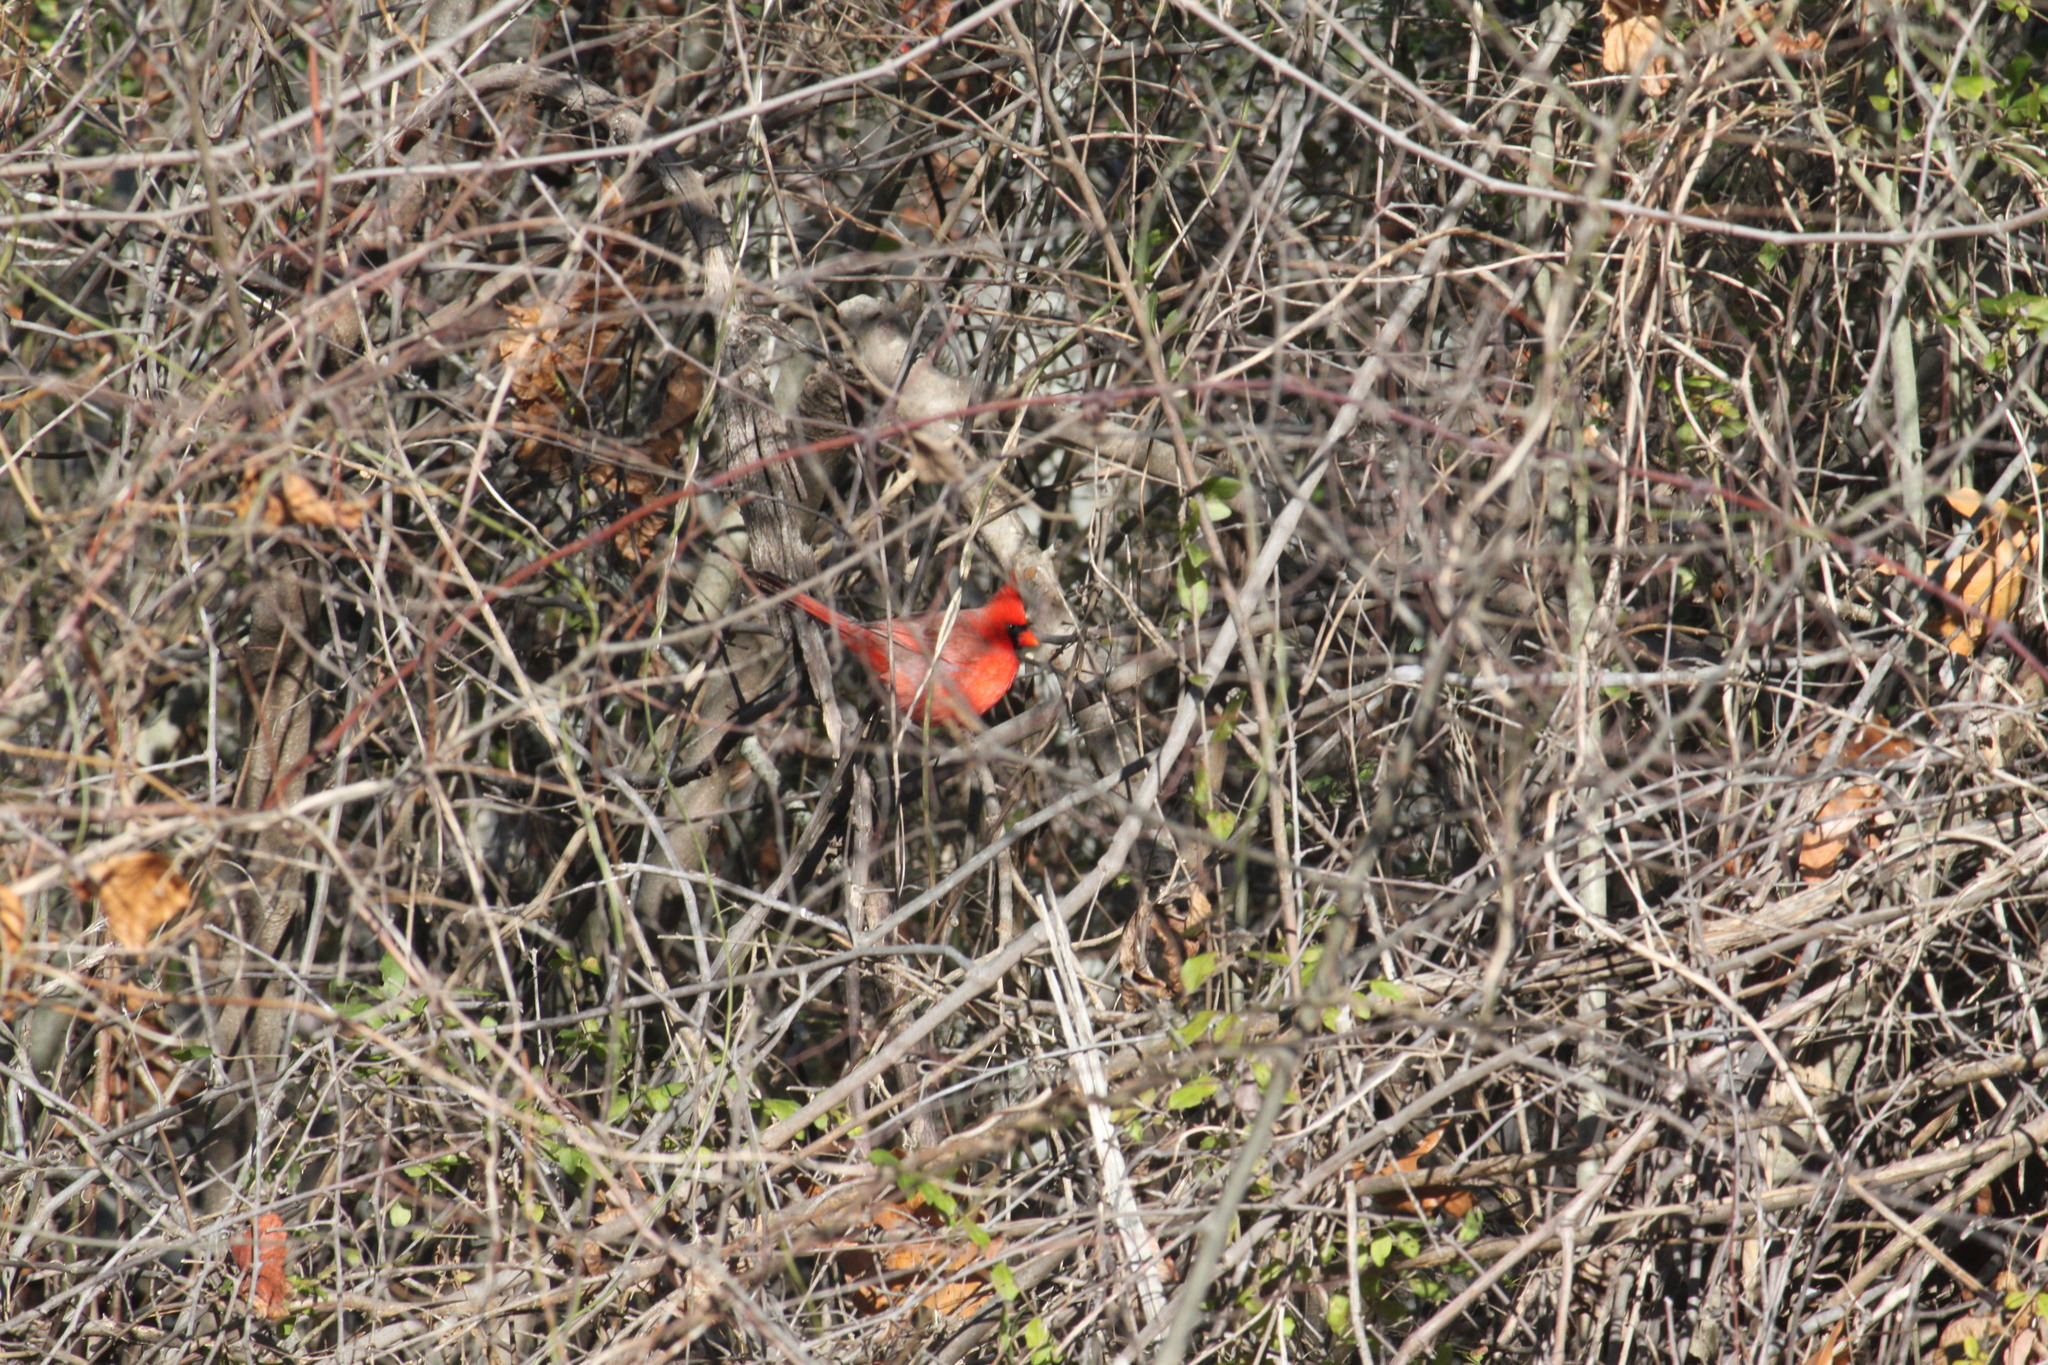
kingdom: Animalia
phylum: Chordata
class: Aves
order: Passeriformes
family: Cardinalidae
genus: Cardinalis
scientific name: Cardinalis cardinalis
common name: Northern cardinal
